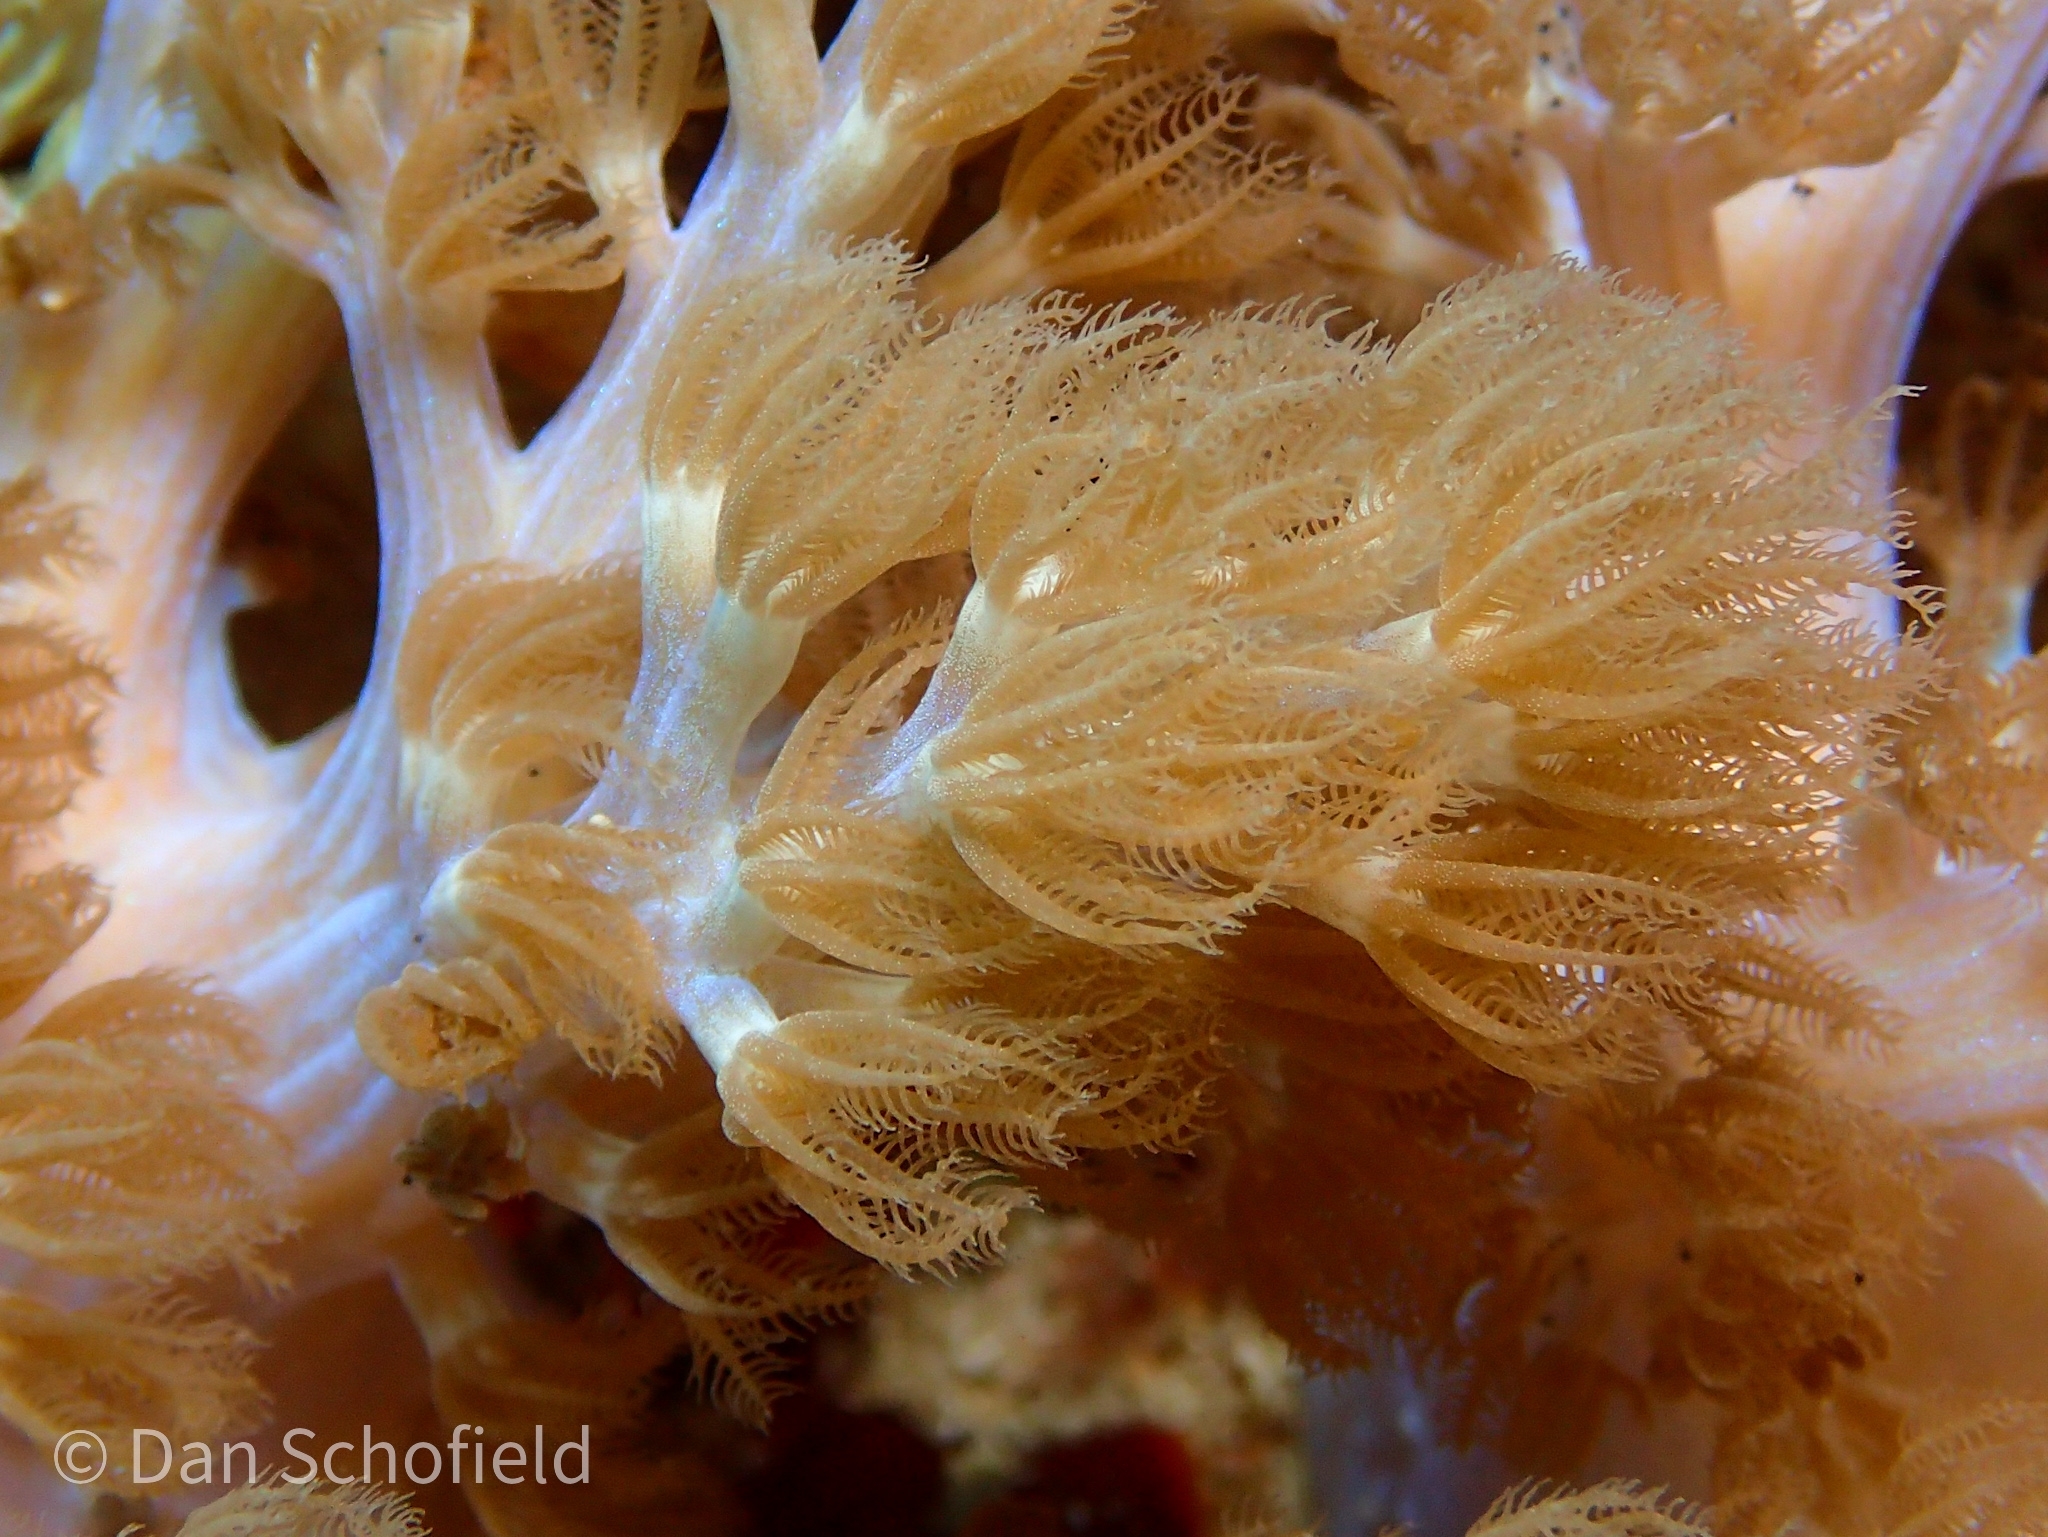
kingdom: Animalia
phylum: Cnidaria
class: Anthozoa
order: Malacalcyonacea
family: Xeniidae
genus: Conglomeratusclera
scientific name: Conglomeratusclera coerulea
